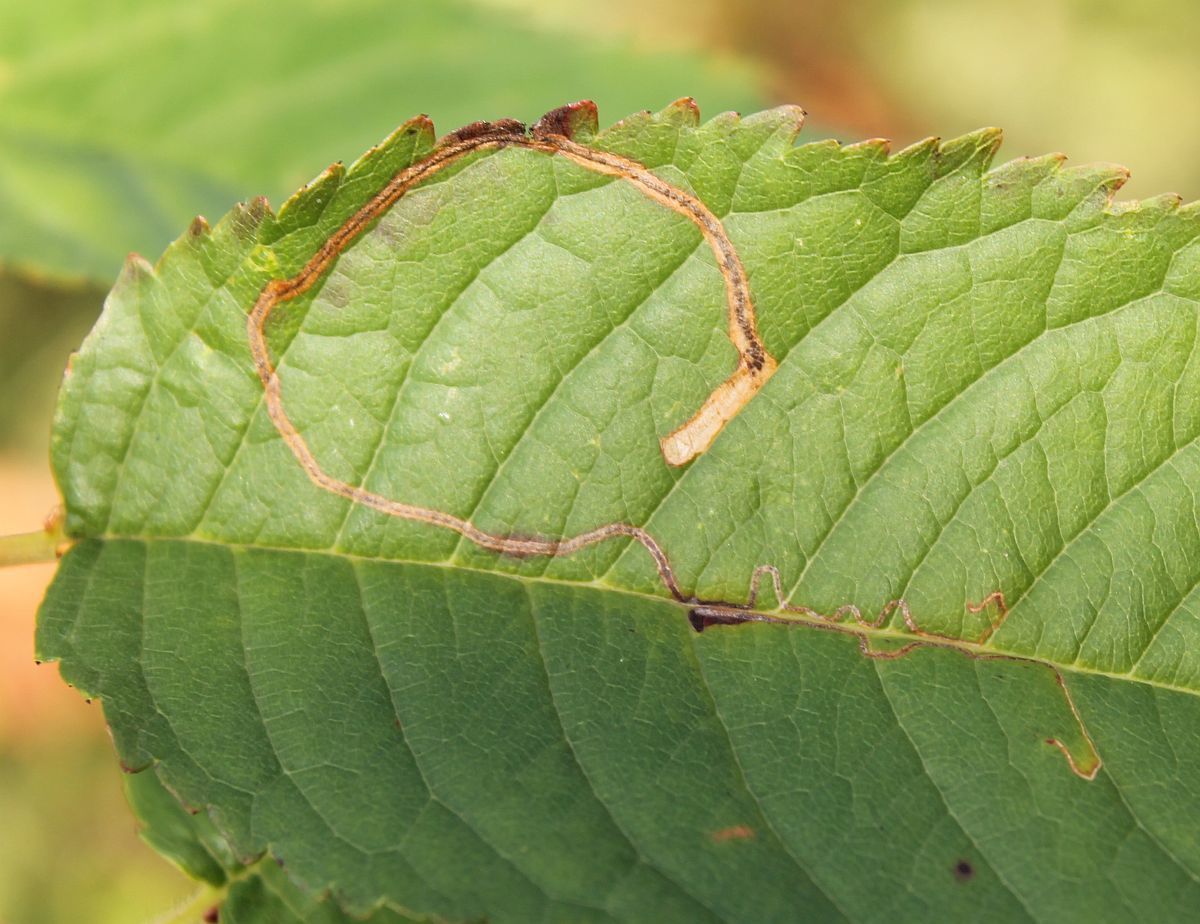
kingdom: Animalia
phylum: Arthropoda
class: Insecta
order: Lepidoptera
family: Lyonetiidae
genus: Lyonetia
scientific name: Lyonetia clerkella
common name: Apple leaf miner
